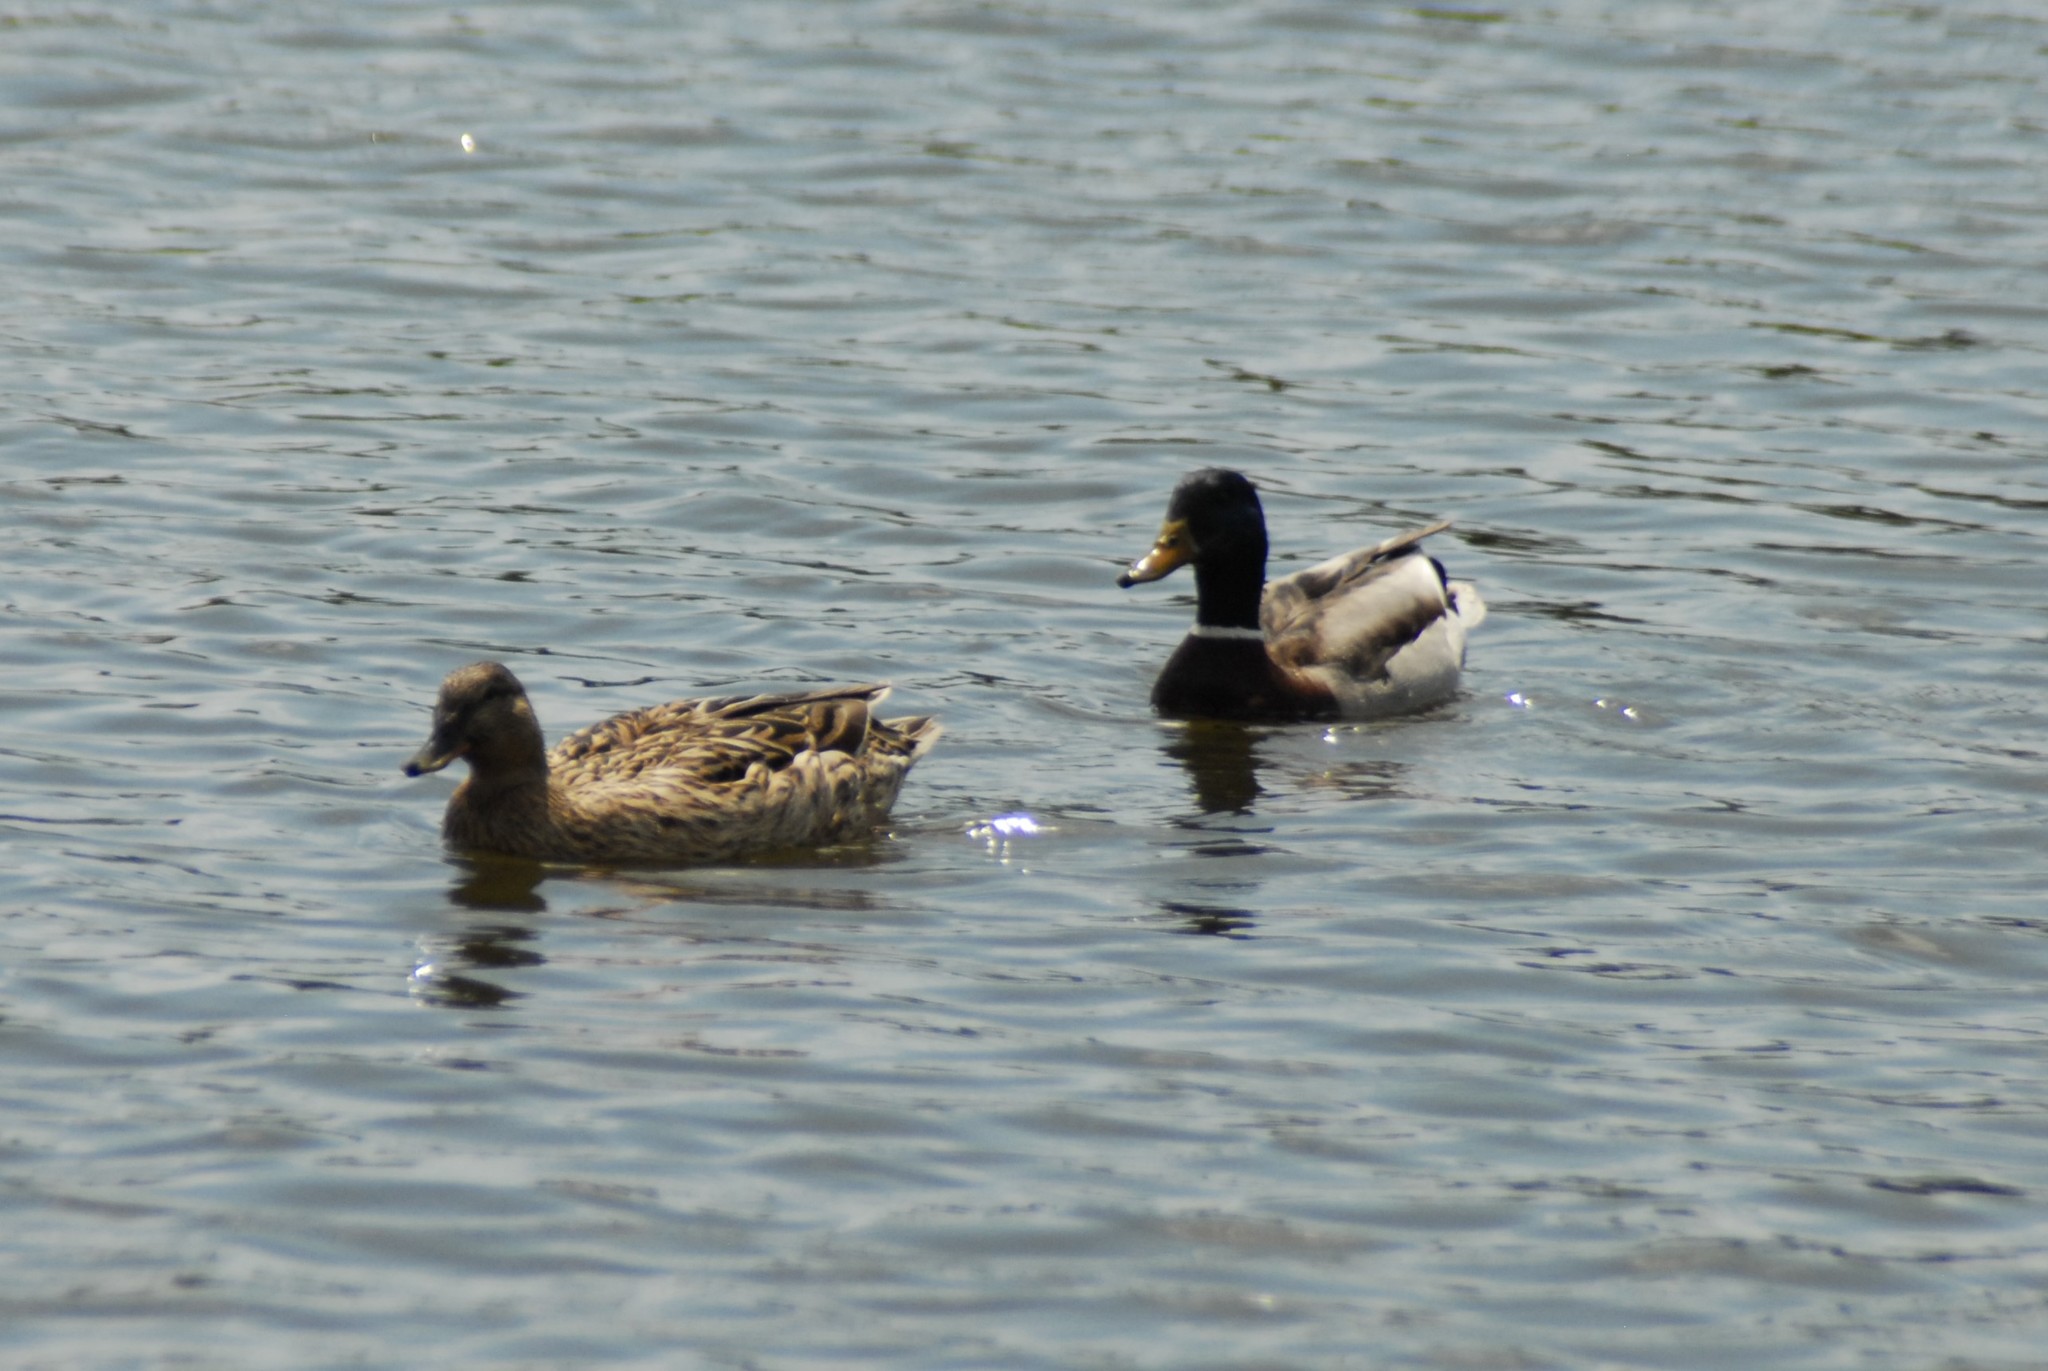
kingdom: Animalia
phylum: Chordata
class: Aves
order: Anseriformes
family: Anatidae
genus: Anas
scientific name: Anas platyrhynchos
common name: Mallard
